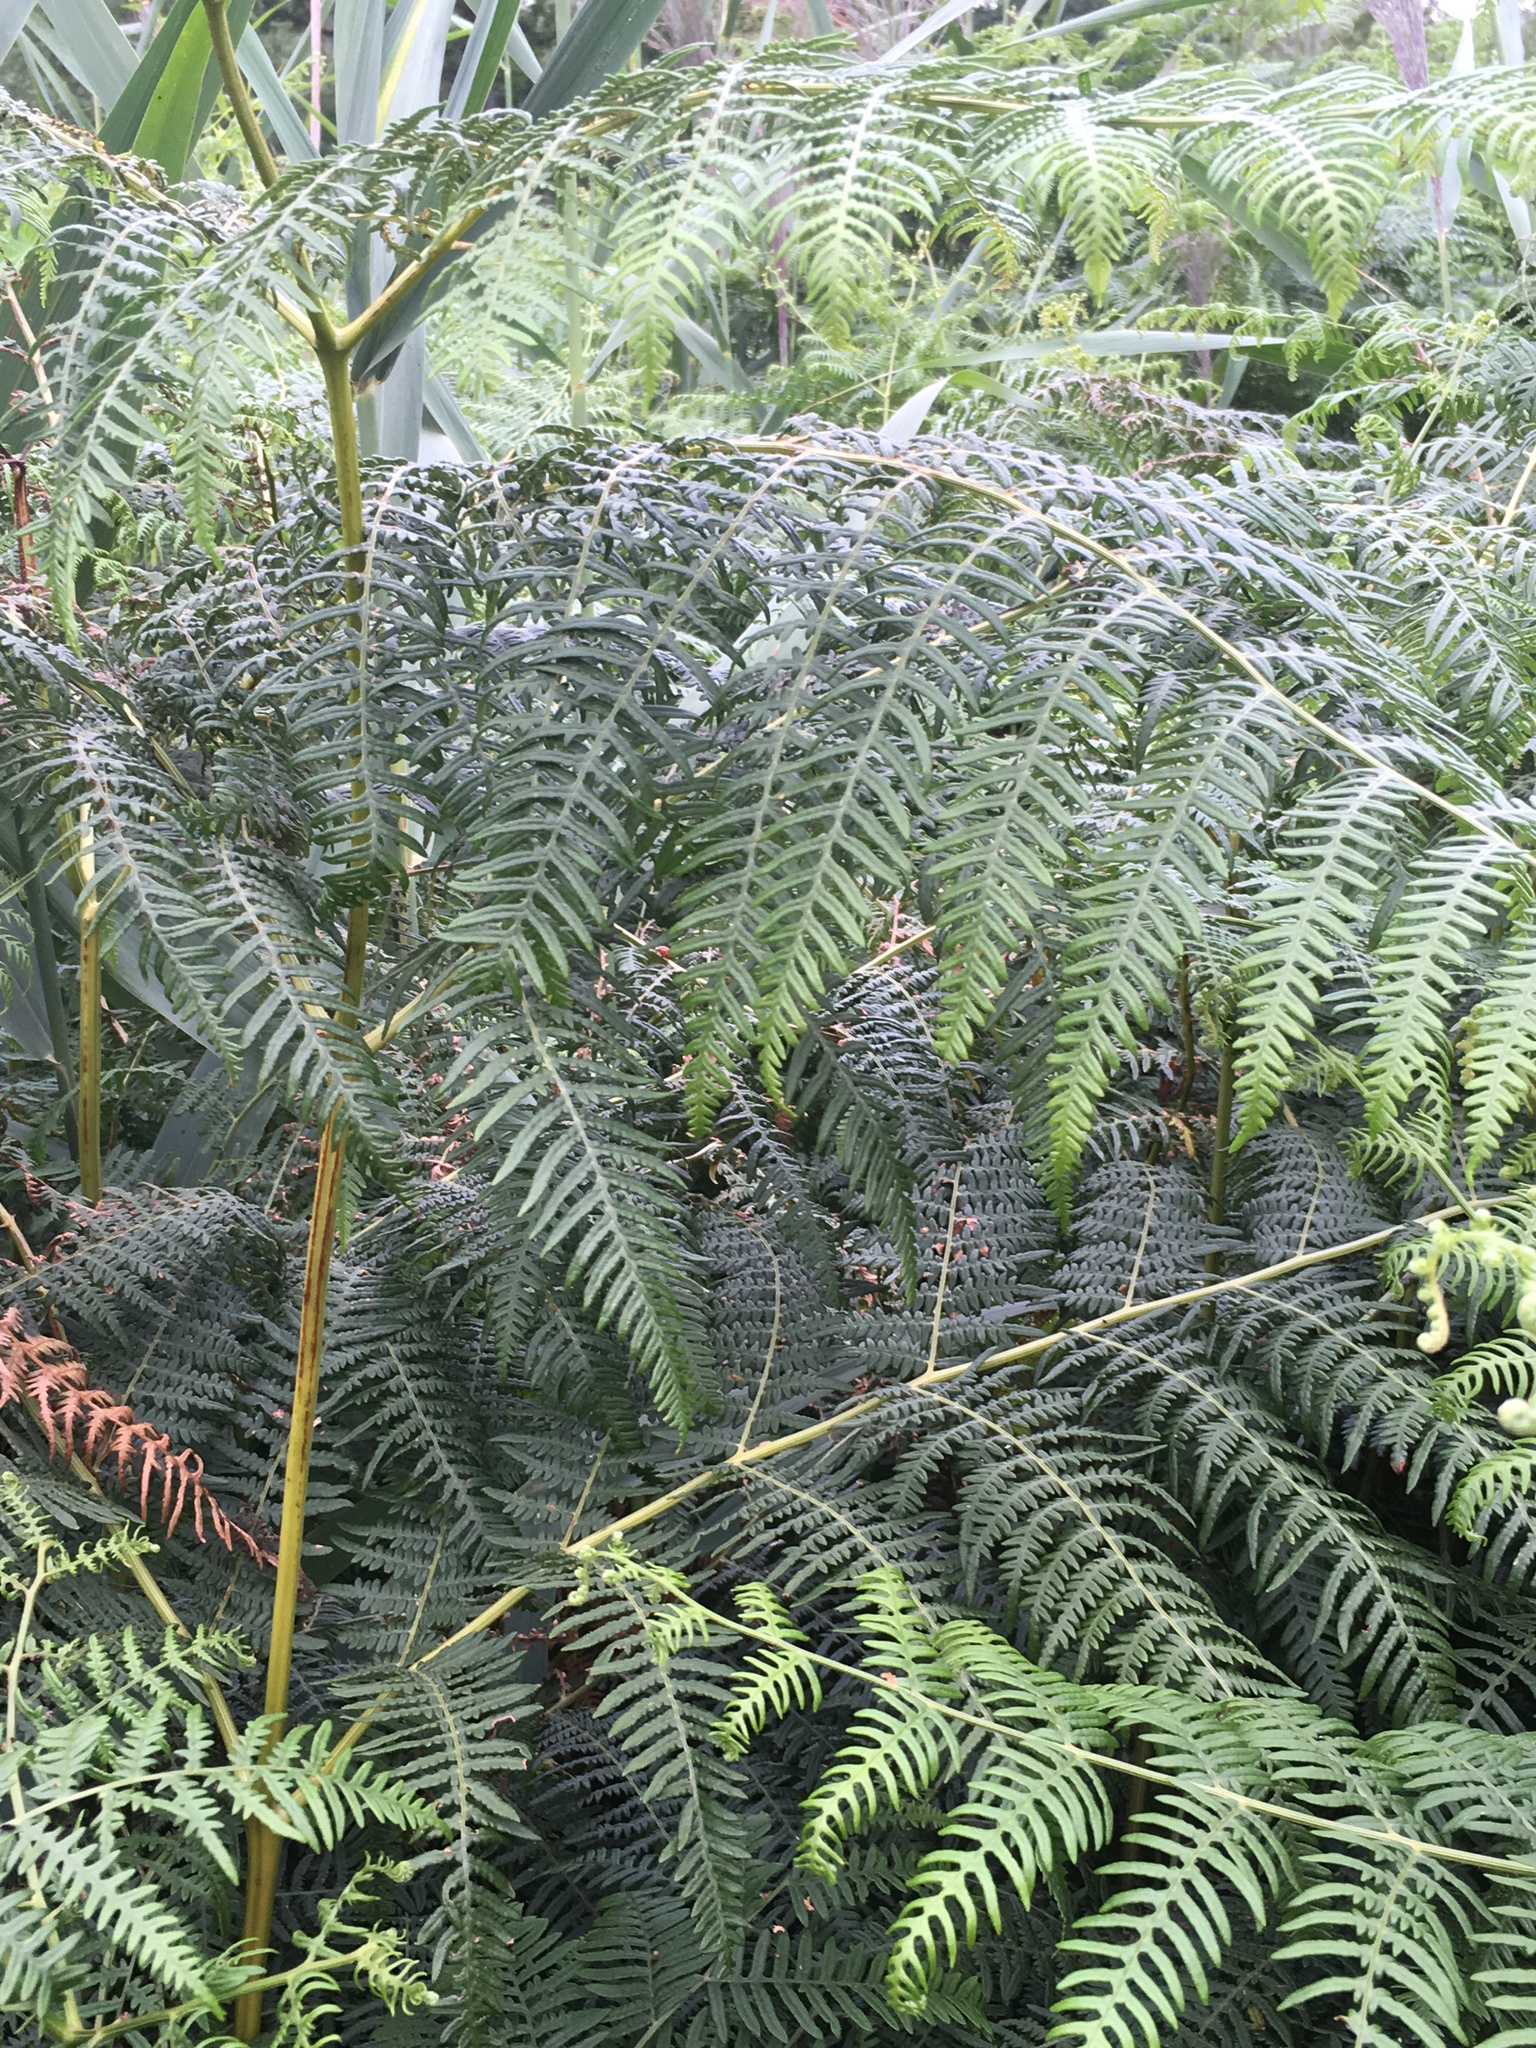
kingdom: Plantae
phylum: Tracheophyta
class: Polypodiopsida
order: Polypodiales
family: Dennstaedtiaceae
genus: Pteridium
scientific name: Pteridium aquilinum
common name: Bracken
